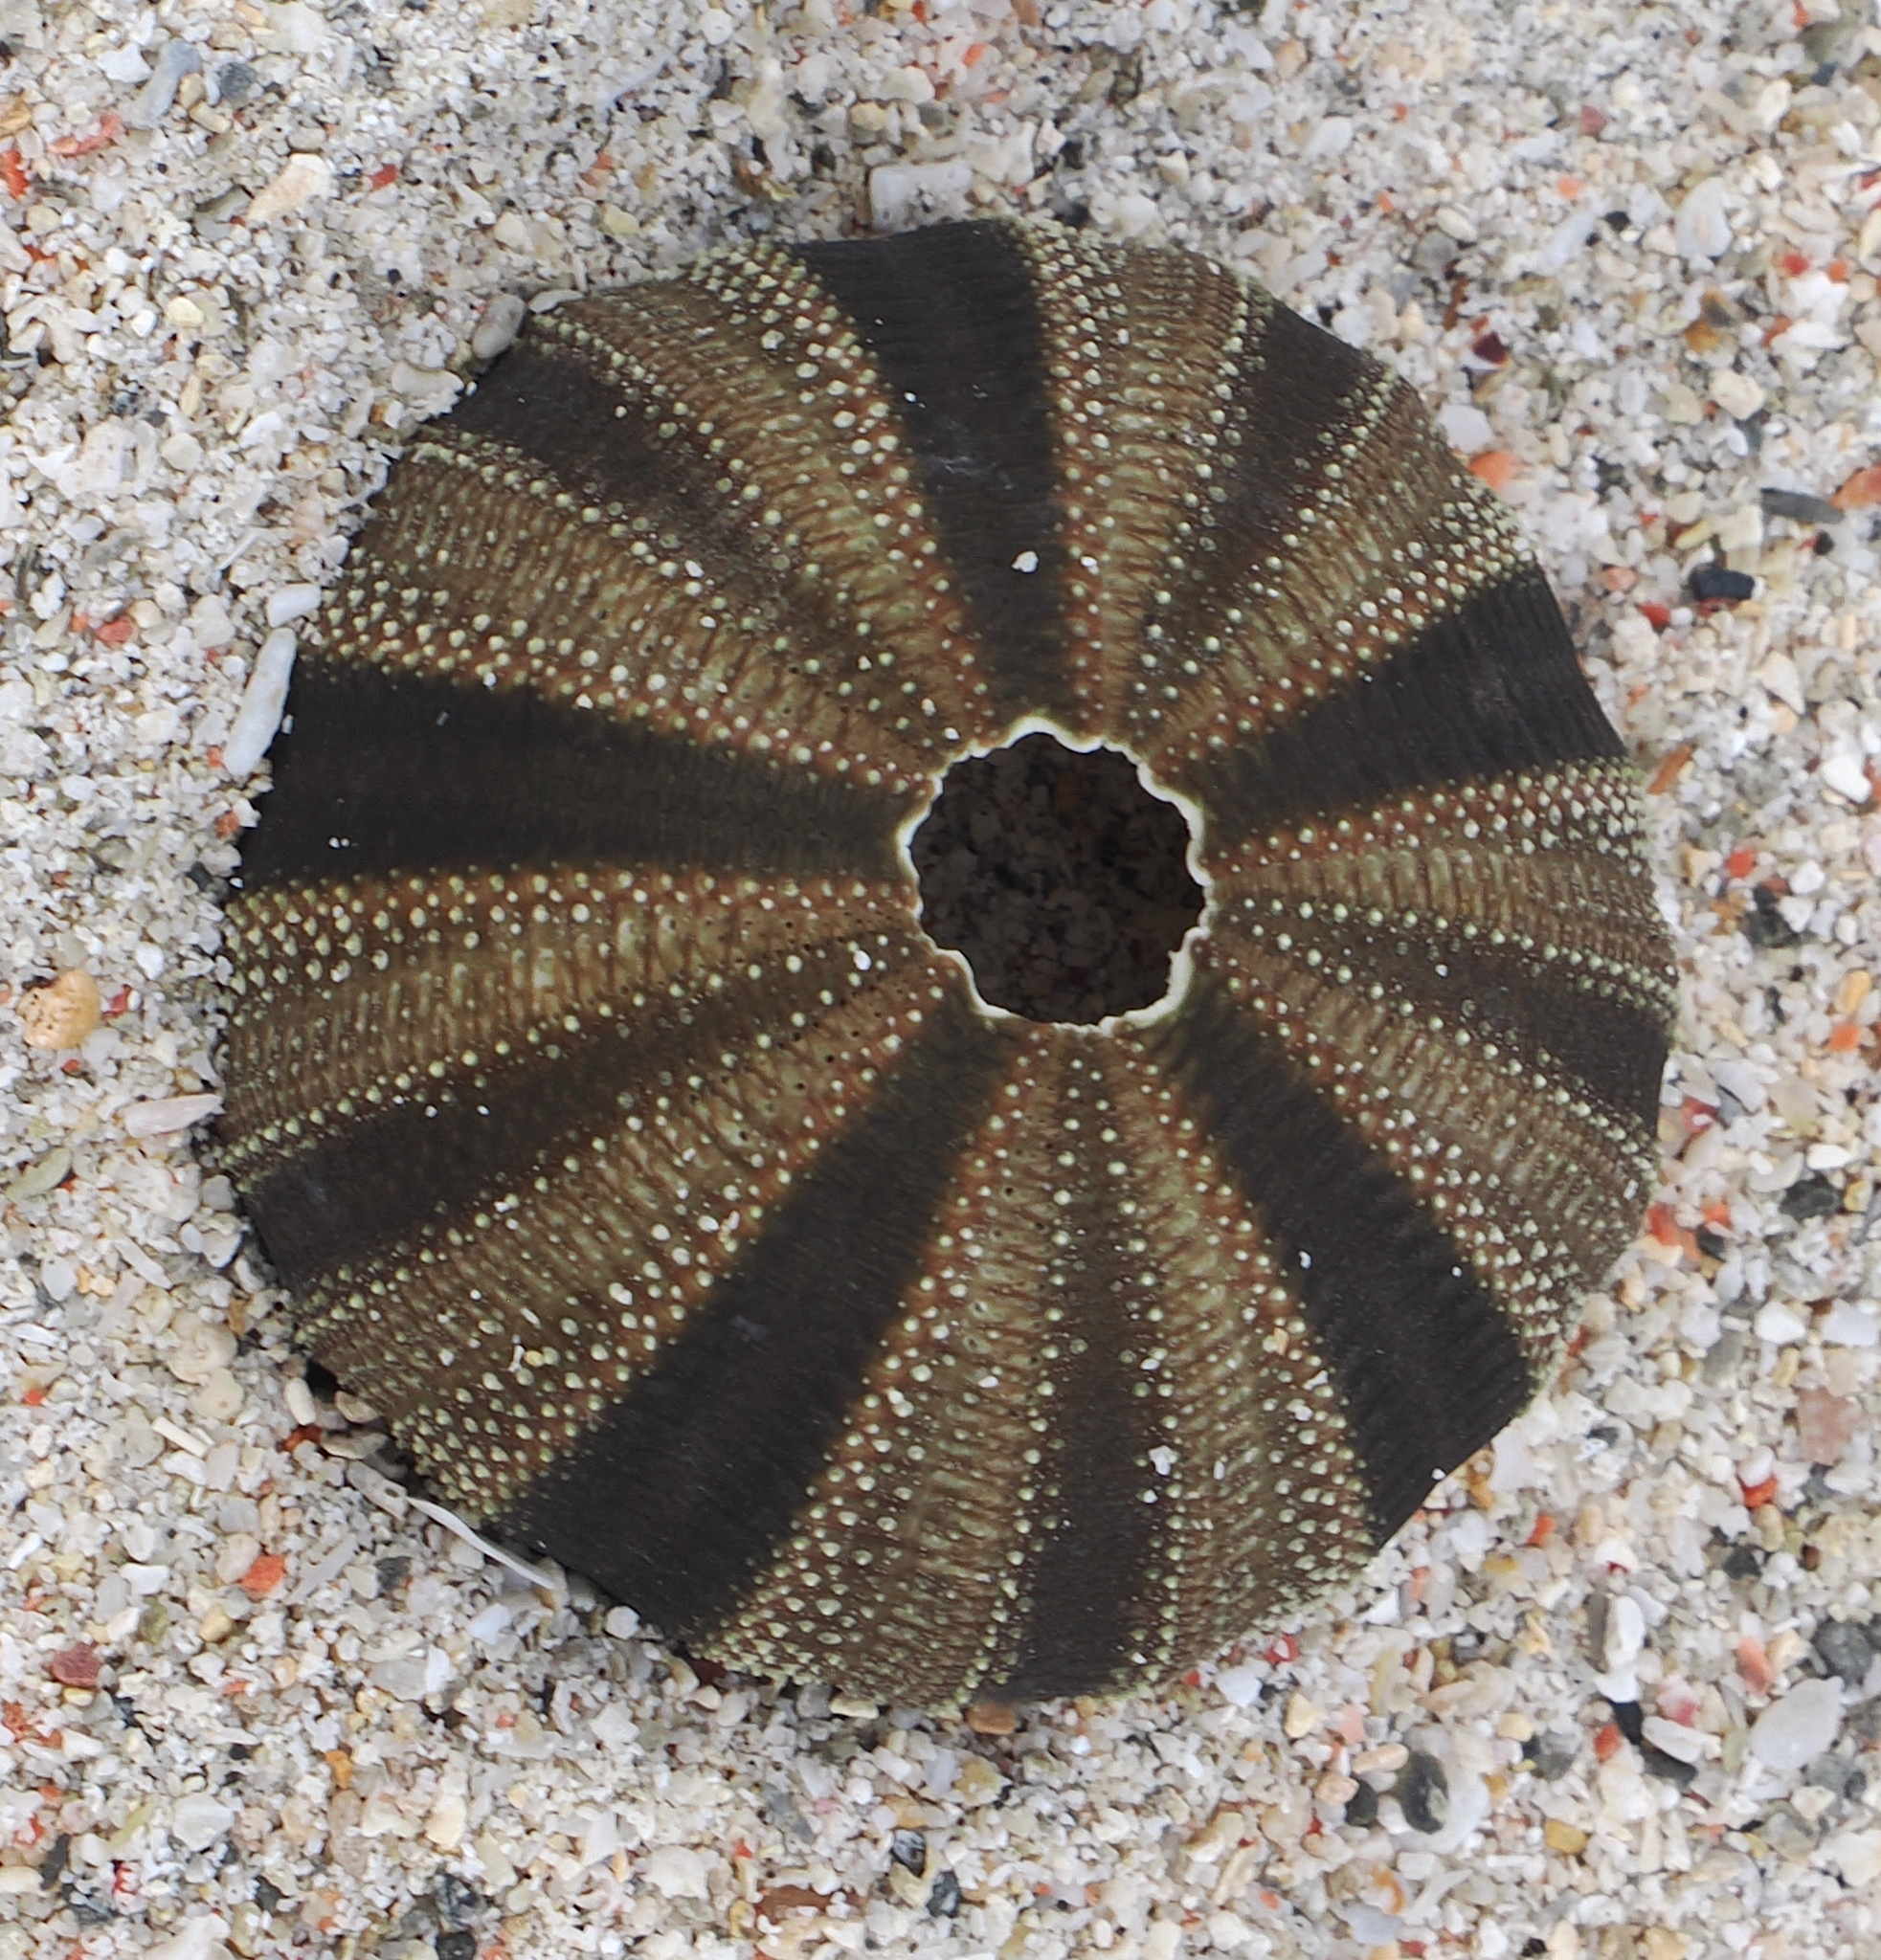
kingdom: Animalia
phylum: Echinodermata
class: Echinoidea
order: Camarodonta
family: Temnopleuridae
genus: Mespilia
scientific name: Mespilia globulus
